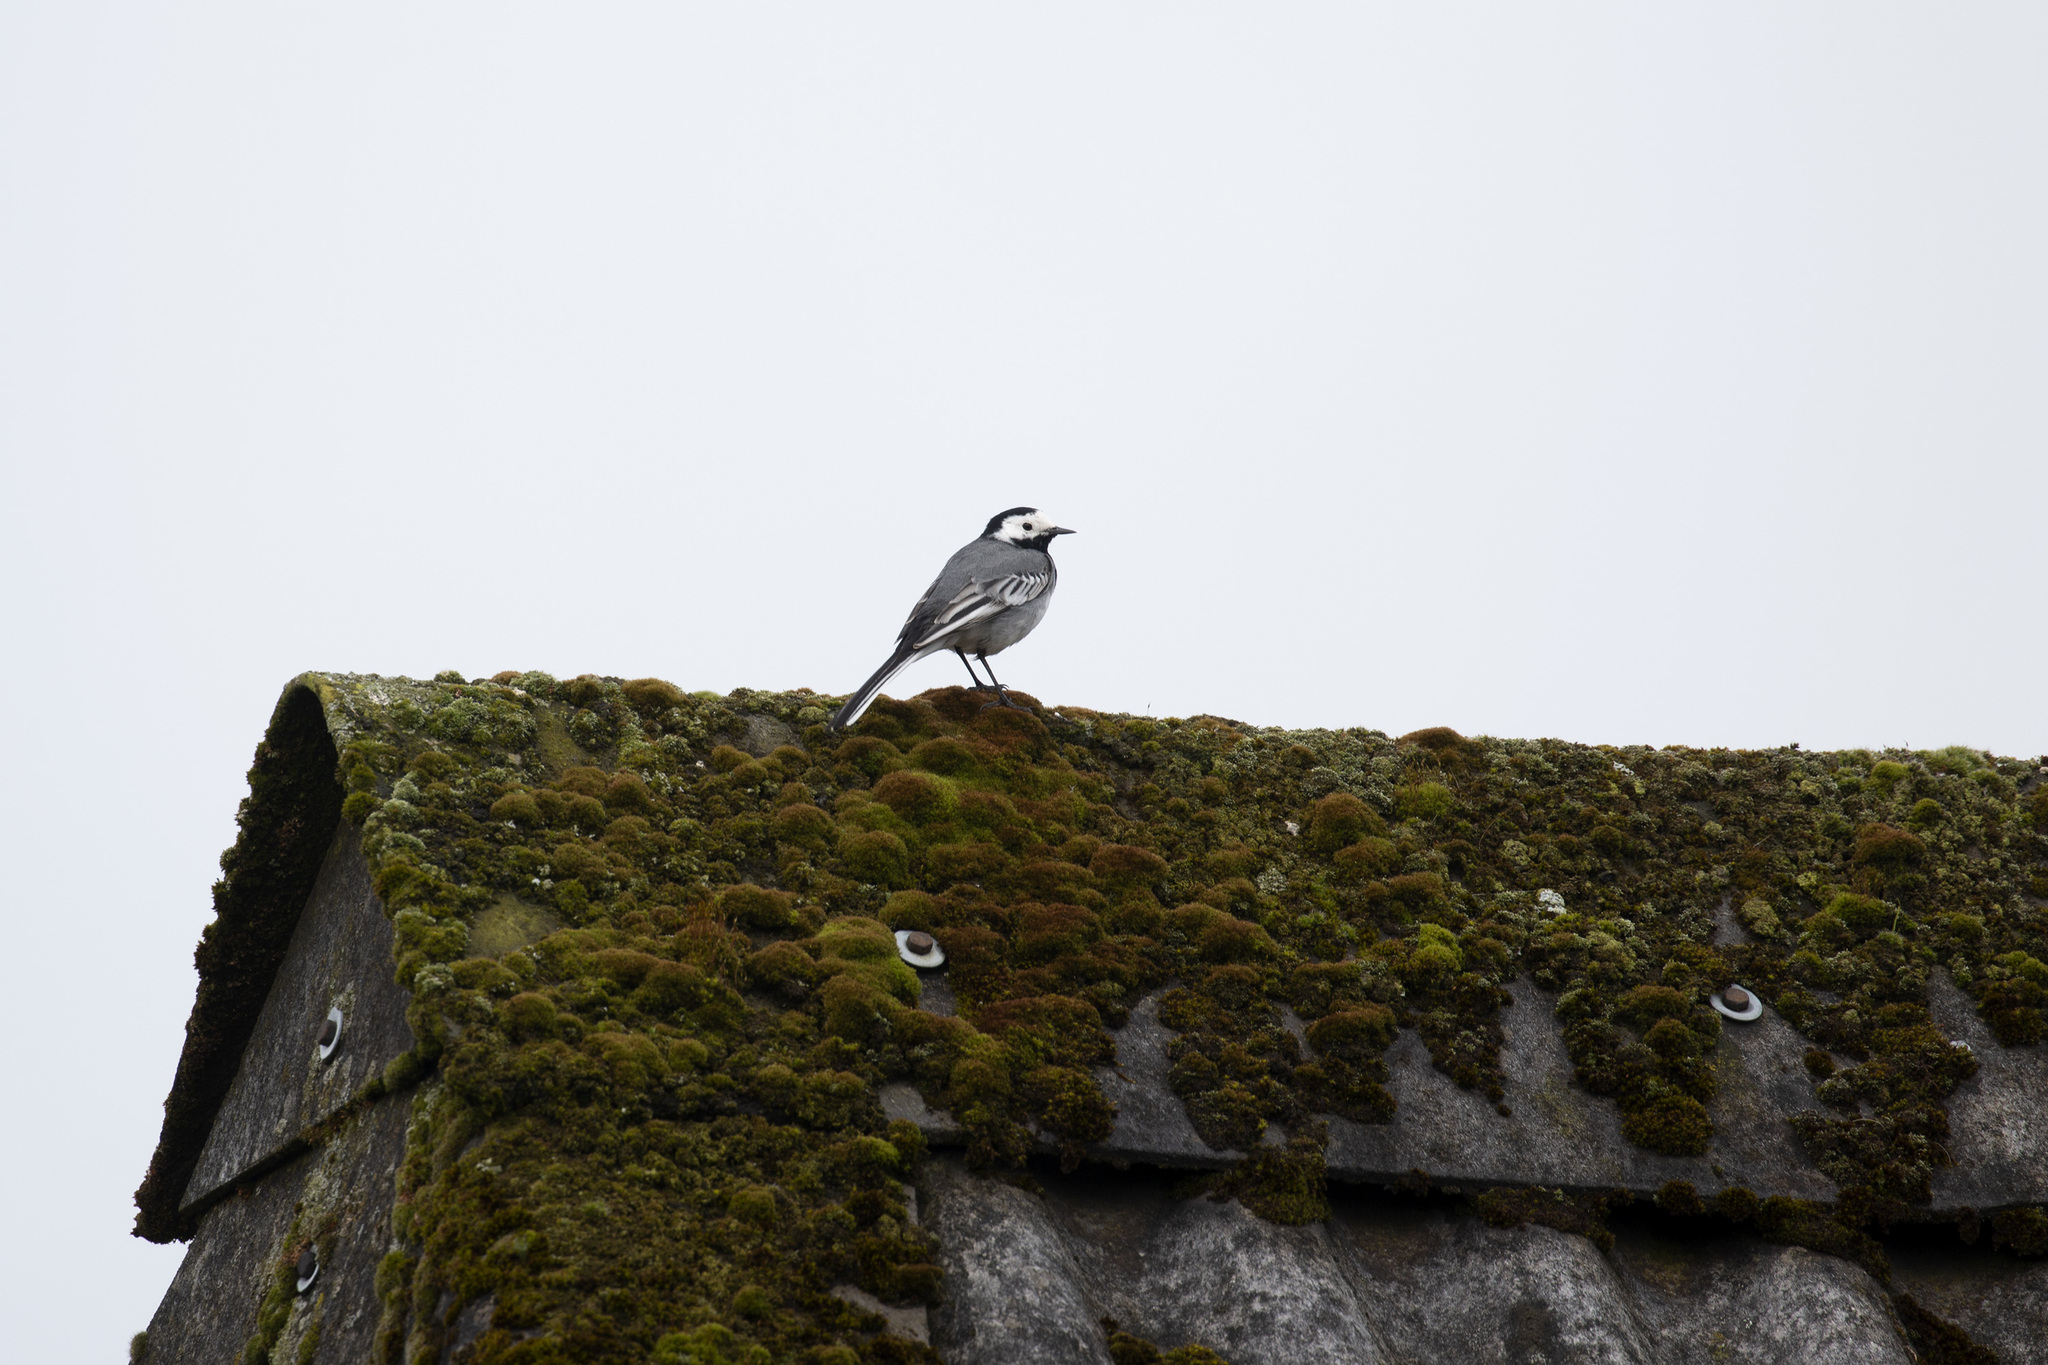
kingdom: Animalia
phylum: Chordata
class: Aves
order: Passeriformes
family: Motacillidae
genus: Motacilla
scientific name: Motacilla alba
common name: White wagtail
